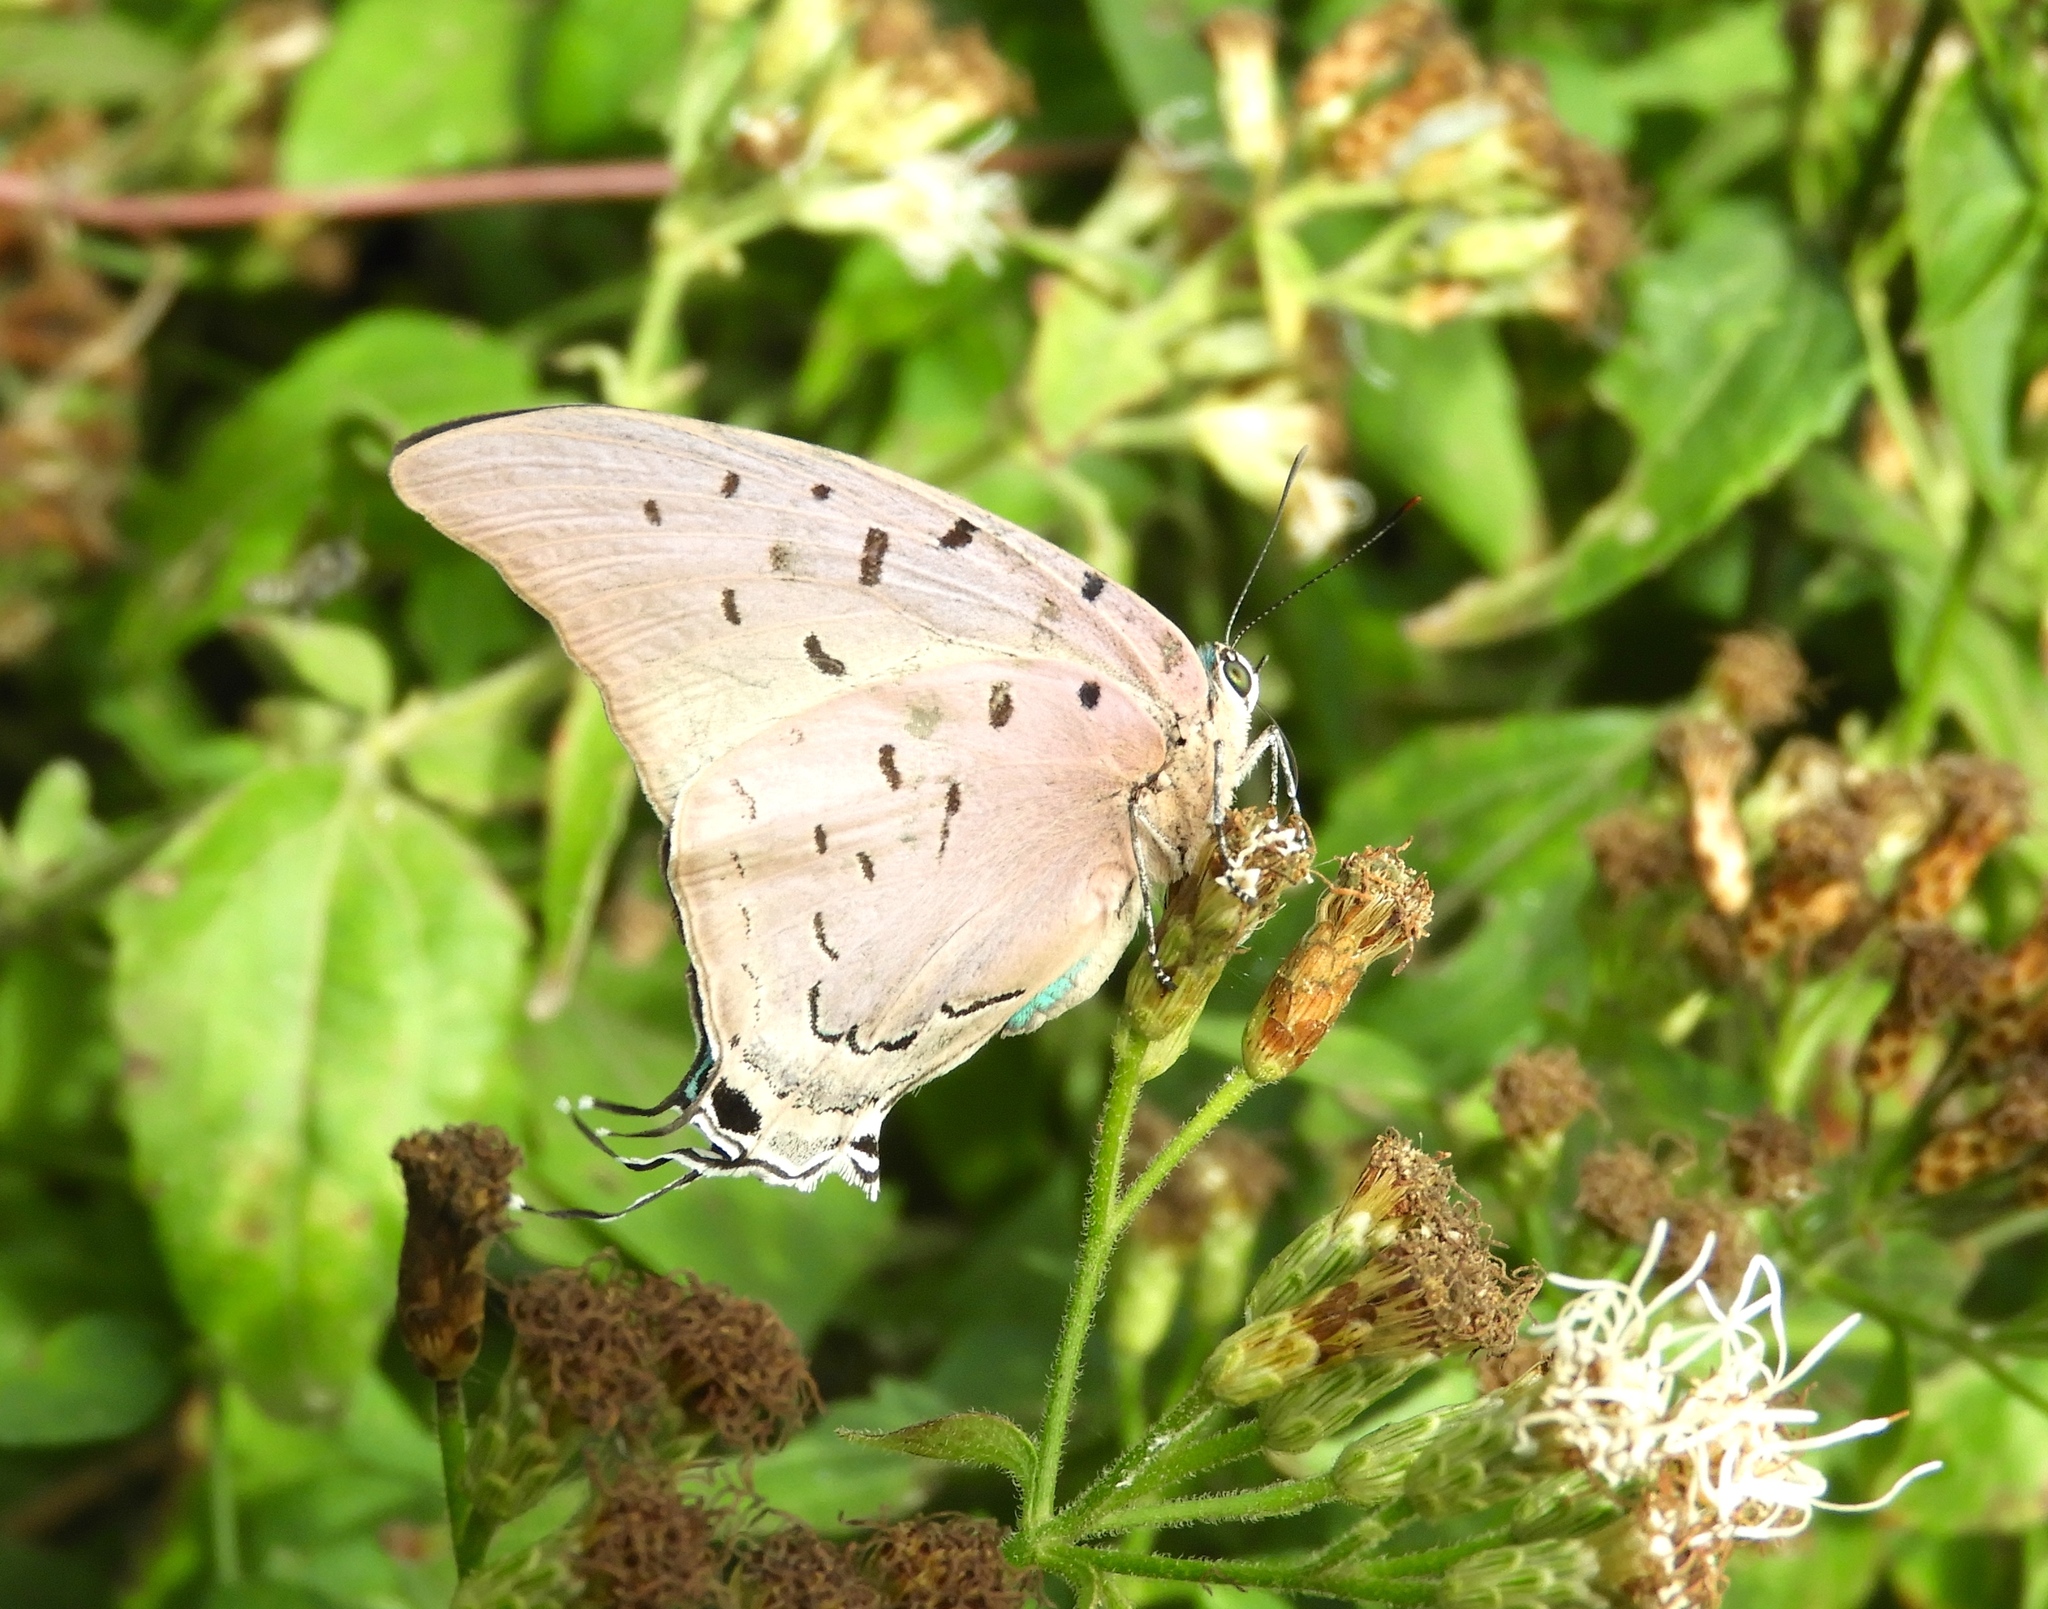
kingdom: Animalia
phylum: Arthropoda
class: Insecta
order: Lepidoptera
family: Lycaenidae
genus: Pseudolycaena
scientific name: Pseudolycaena damo
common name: Sky-blue hairstreak
